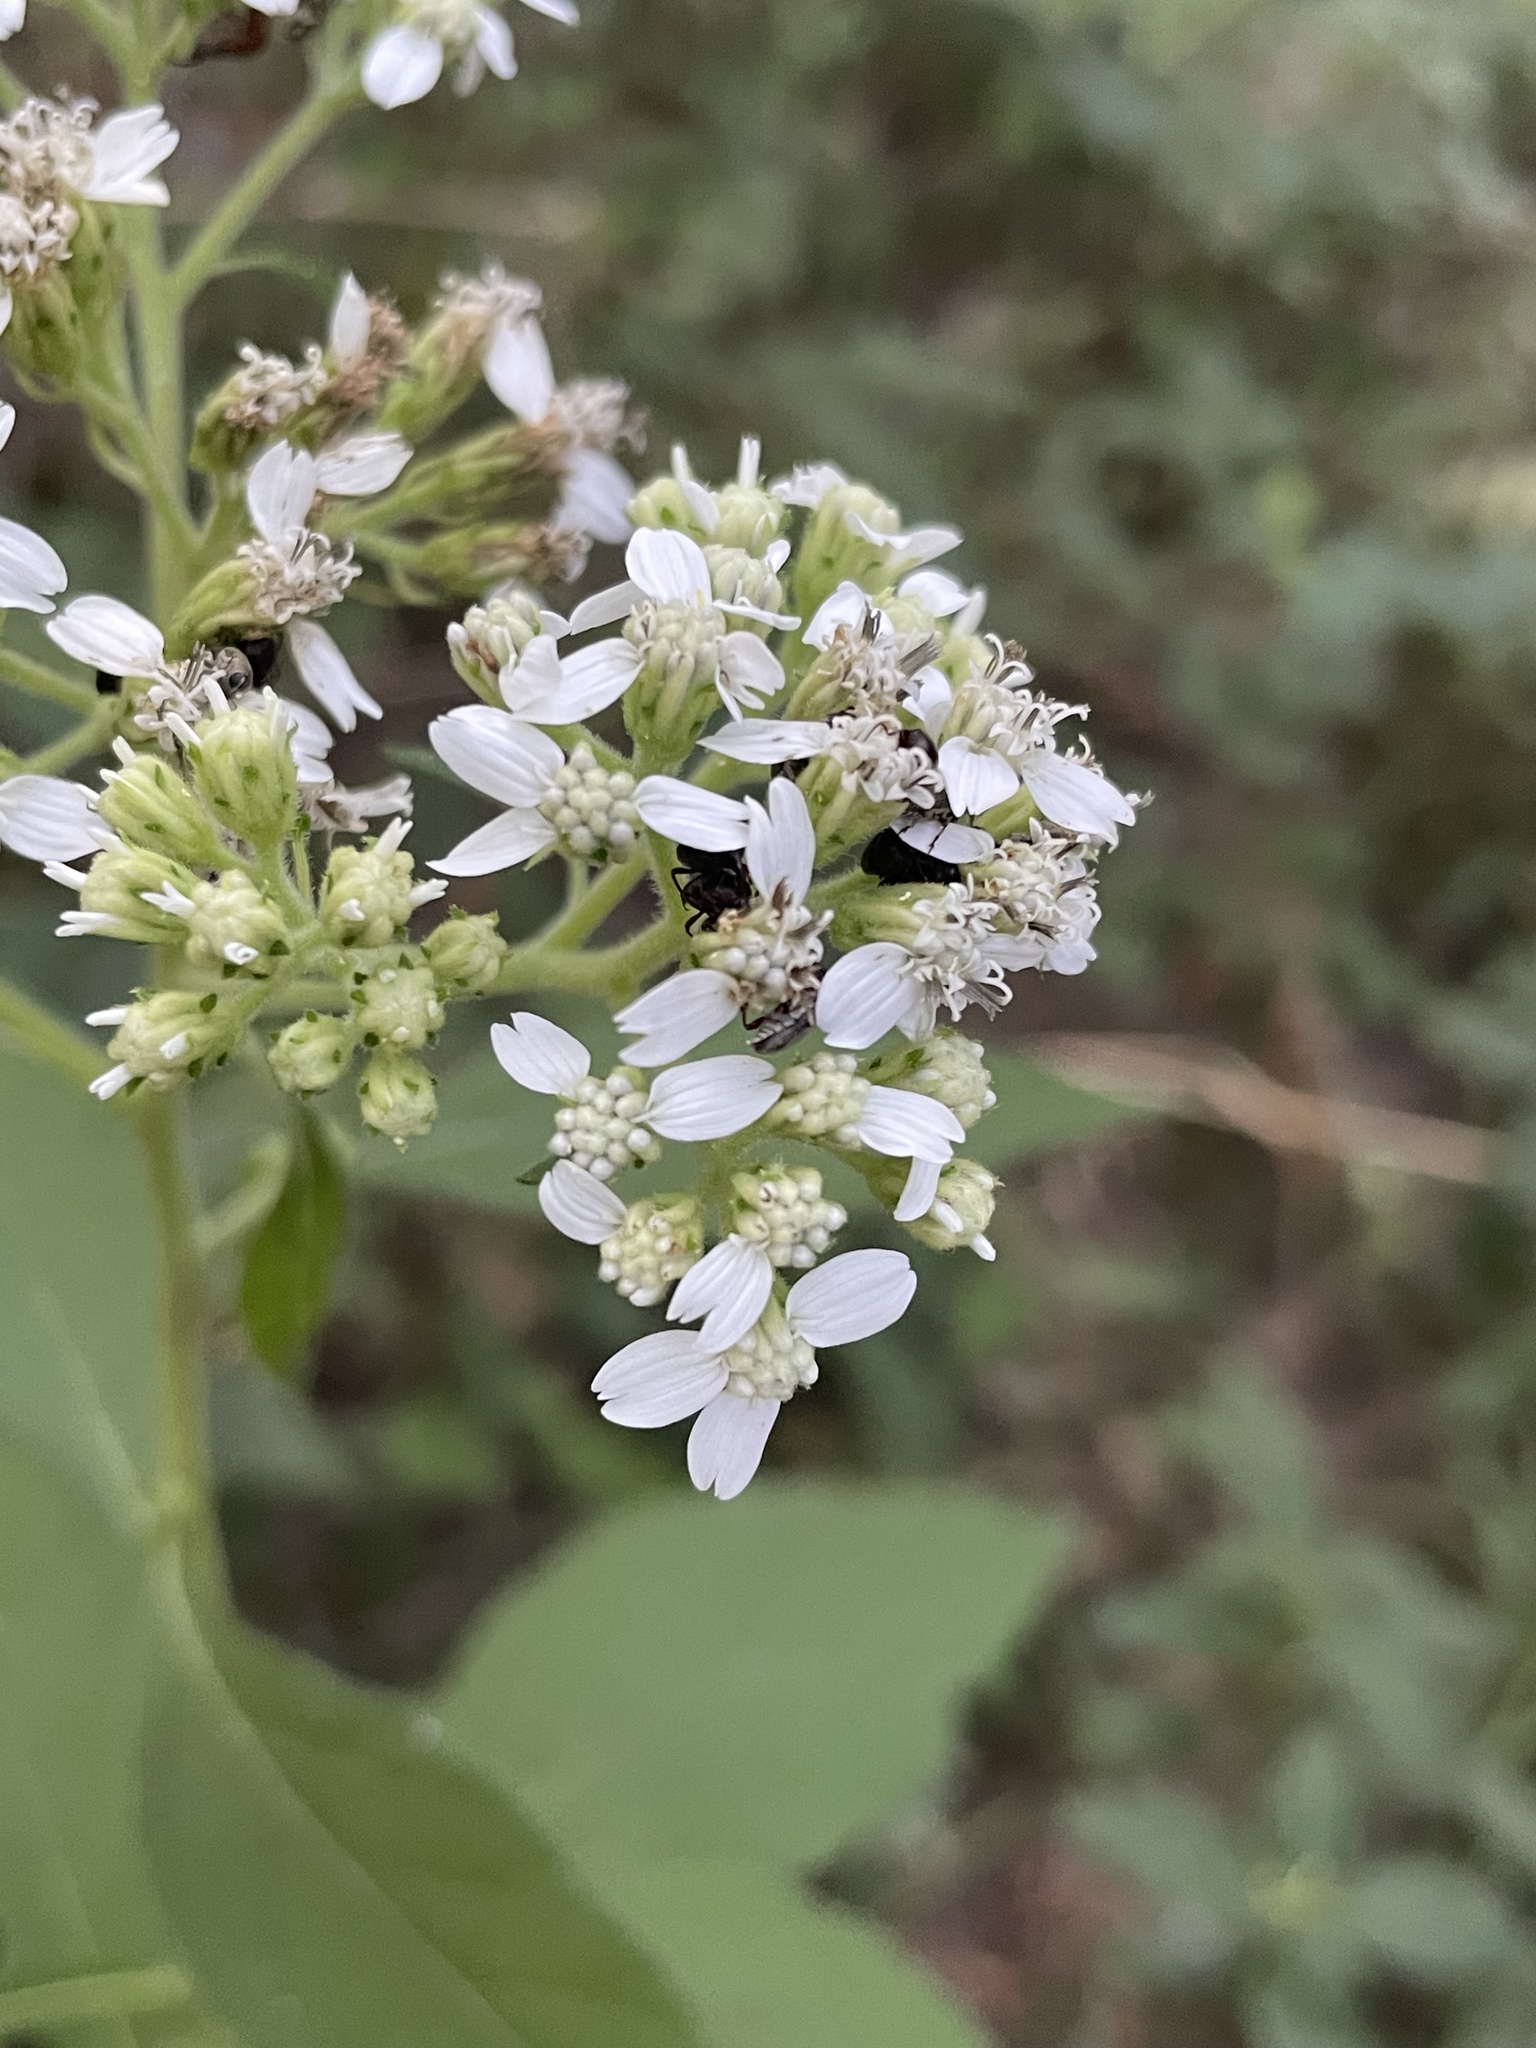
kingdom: Plantae
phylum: Tracheophyta
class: Magnoliopsida
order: Asterales
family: Asteraceae
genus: Verbesina
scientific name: Verbesina virginica
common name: Frostweed
